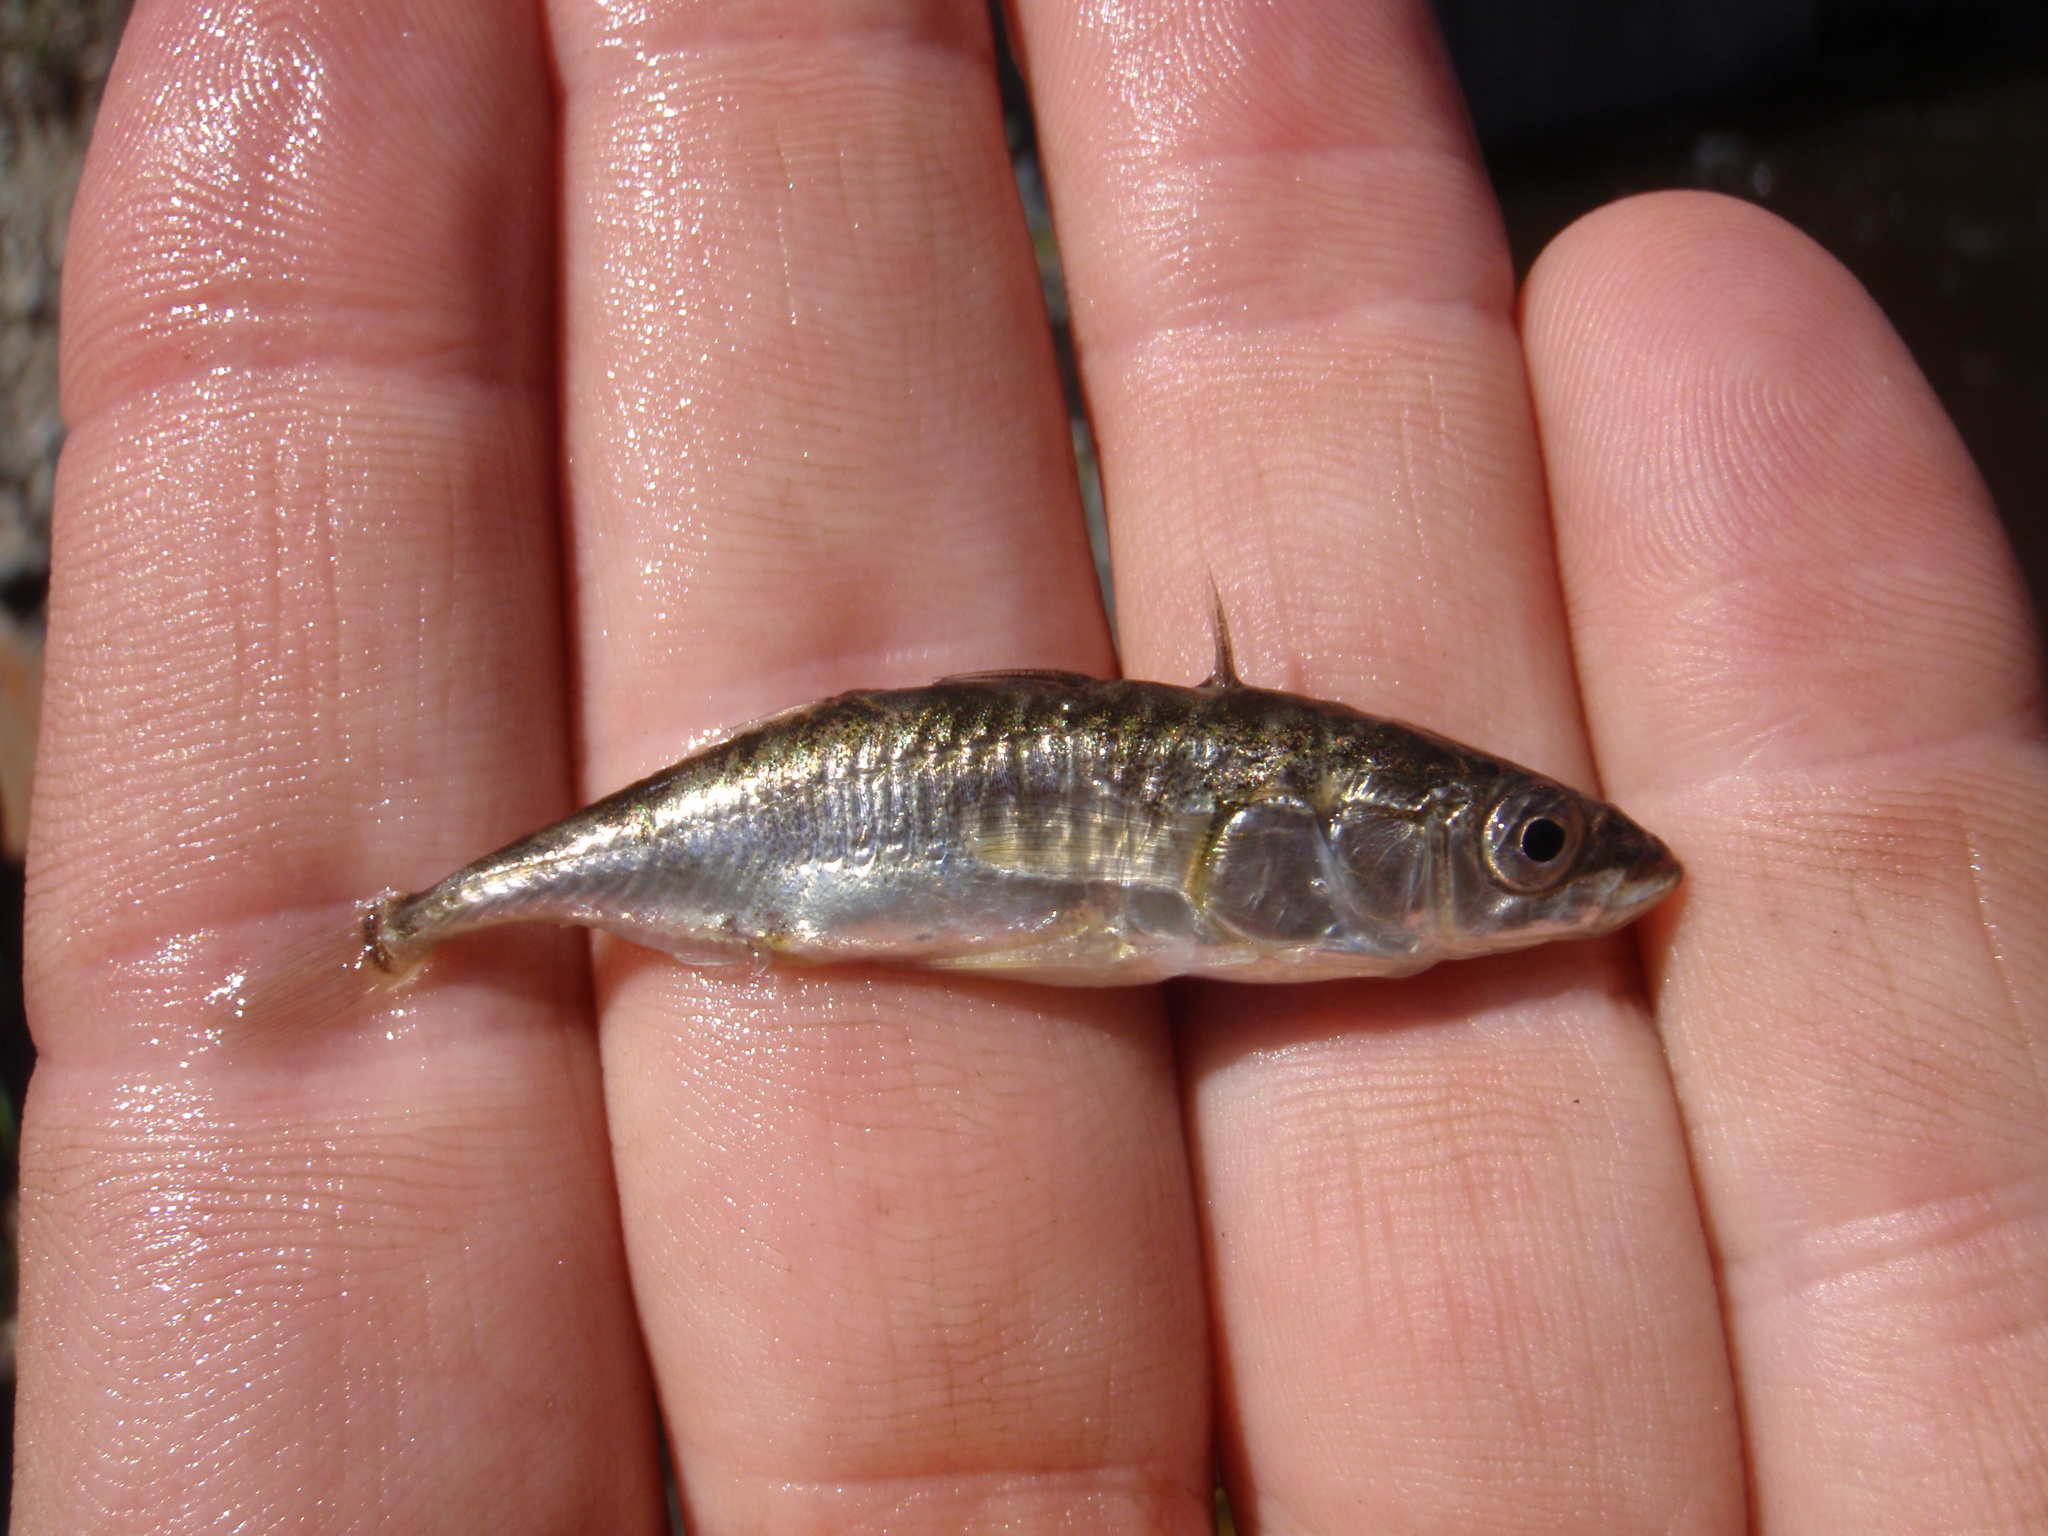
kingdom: Animalia
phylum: Chordata
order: Gasterosteiformes
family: Gasterosteidae
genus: Gasterosteus
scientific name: Gasterosteus aculeatus
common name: Three-spined stickleback
